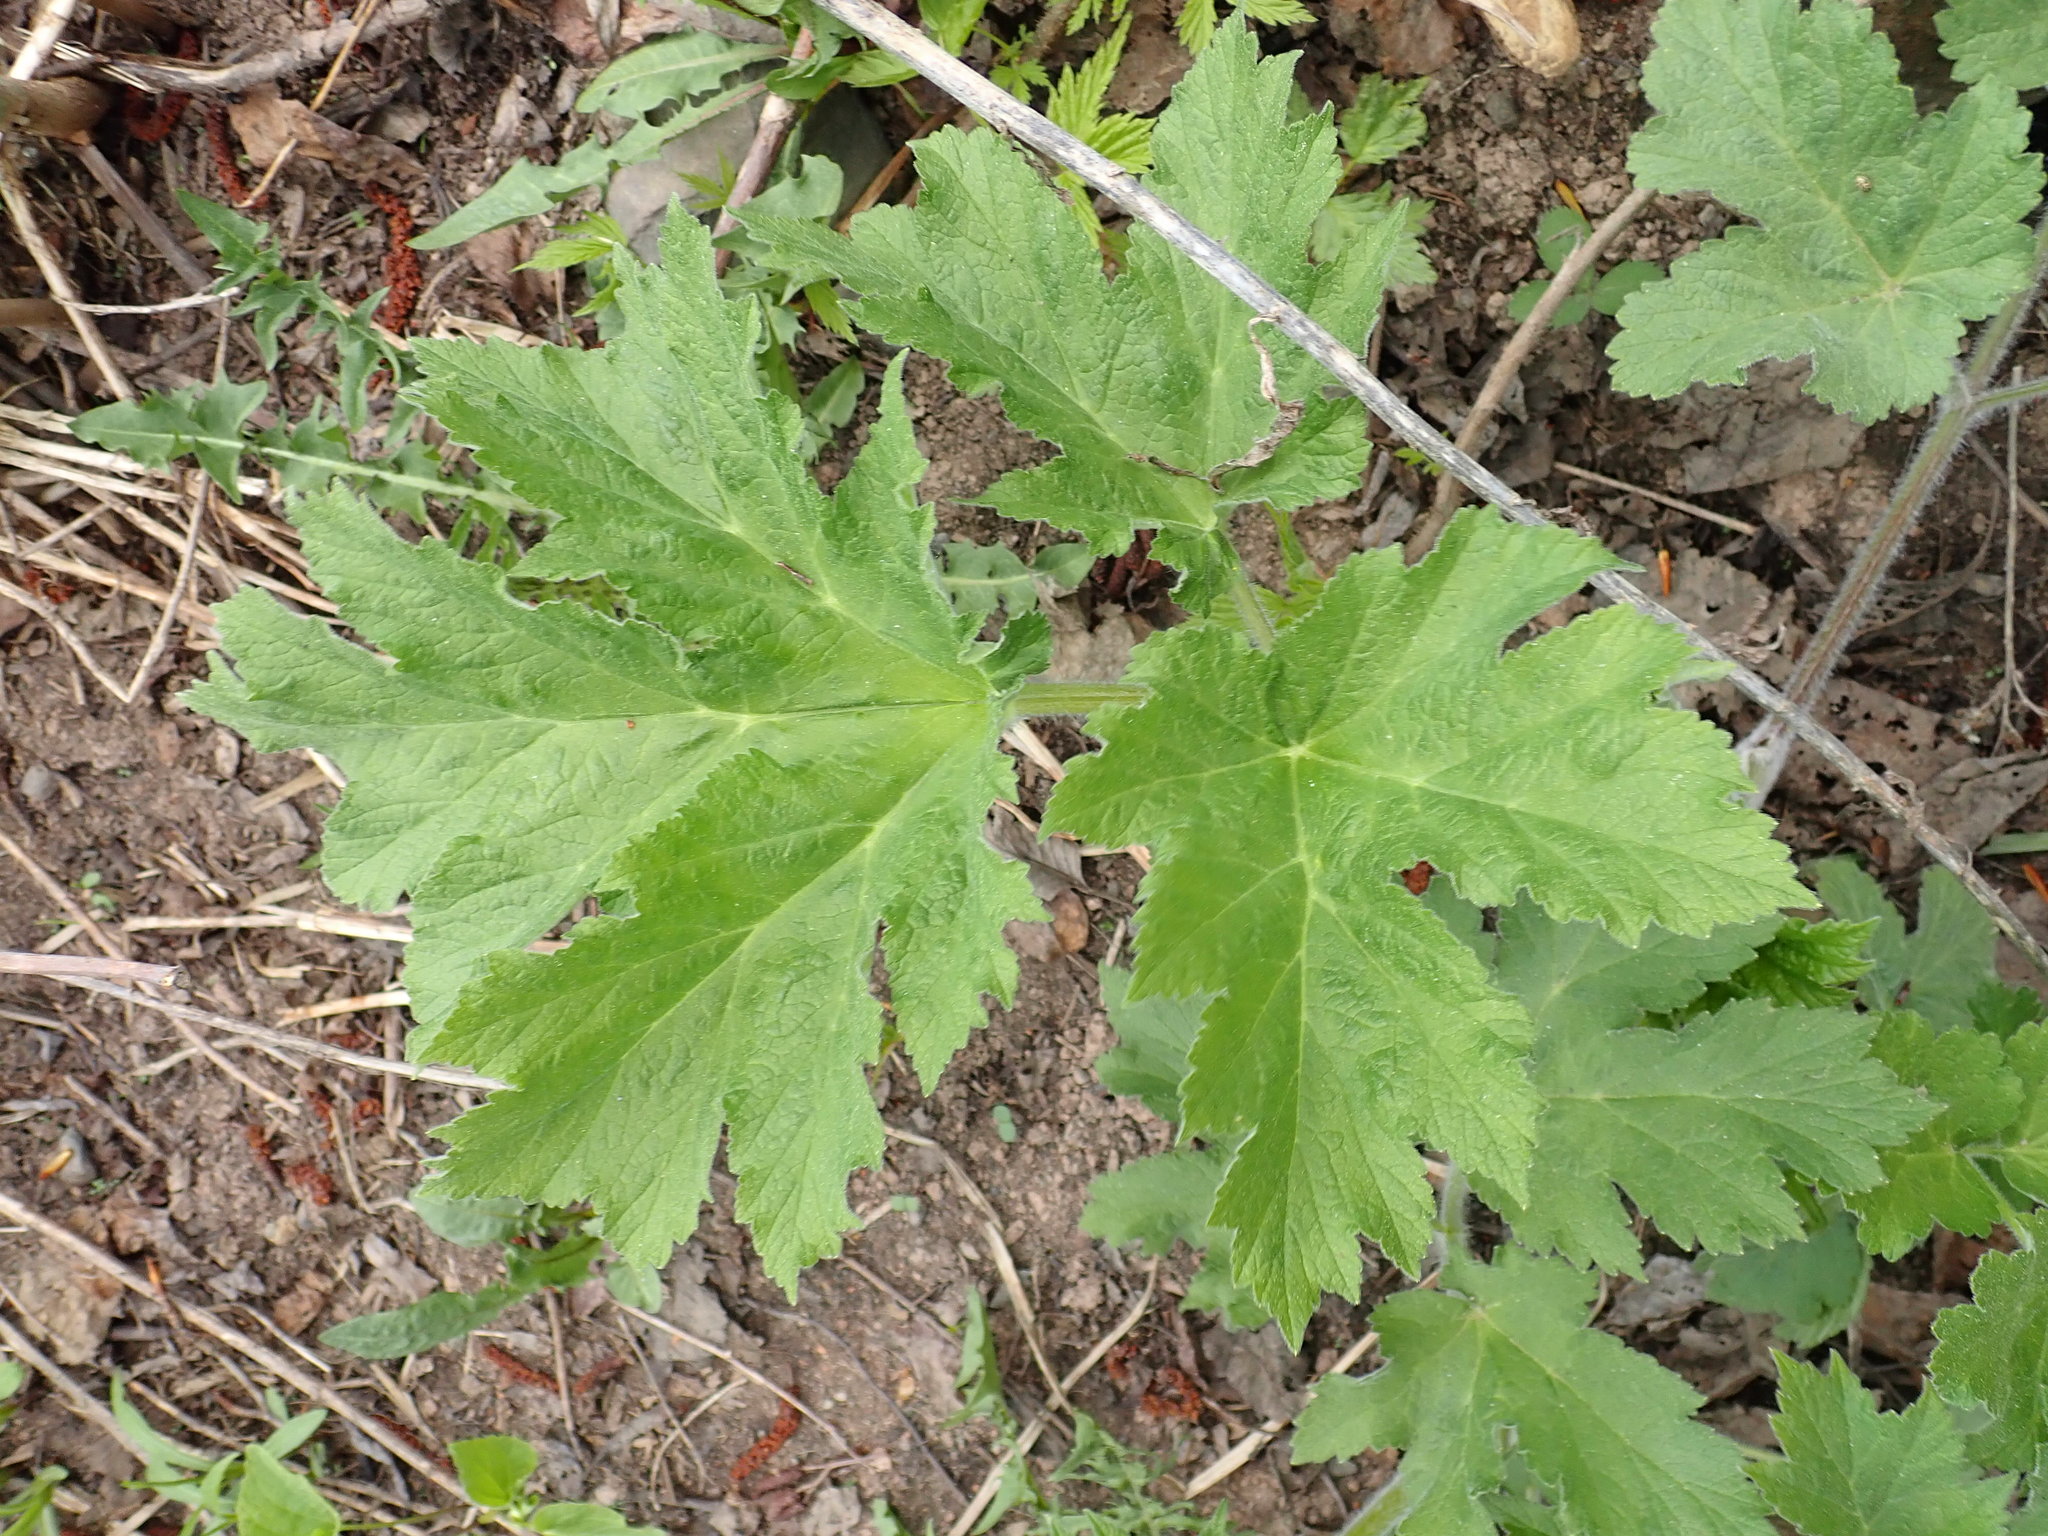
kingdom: Plantae
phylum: Tracheophyta
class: Magnoliopsida
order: Apiales
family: Apiaceae
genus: Heracleum
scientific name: Heracleum maximum
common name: American cow parsnip
